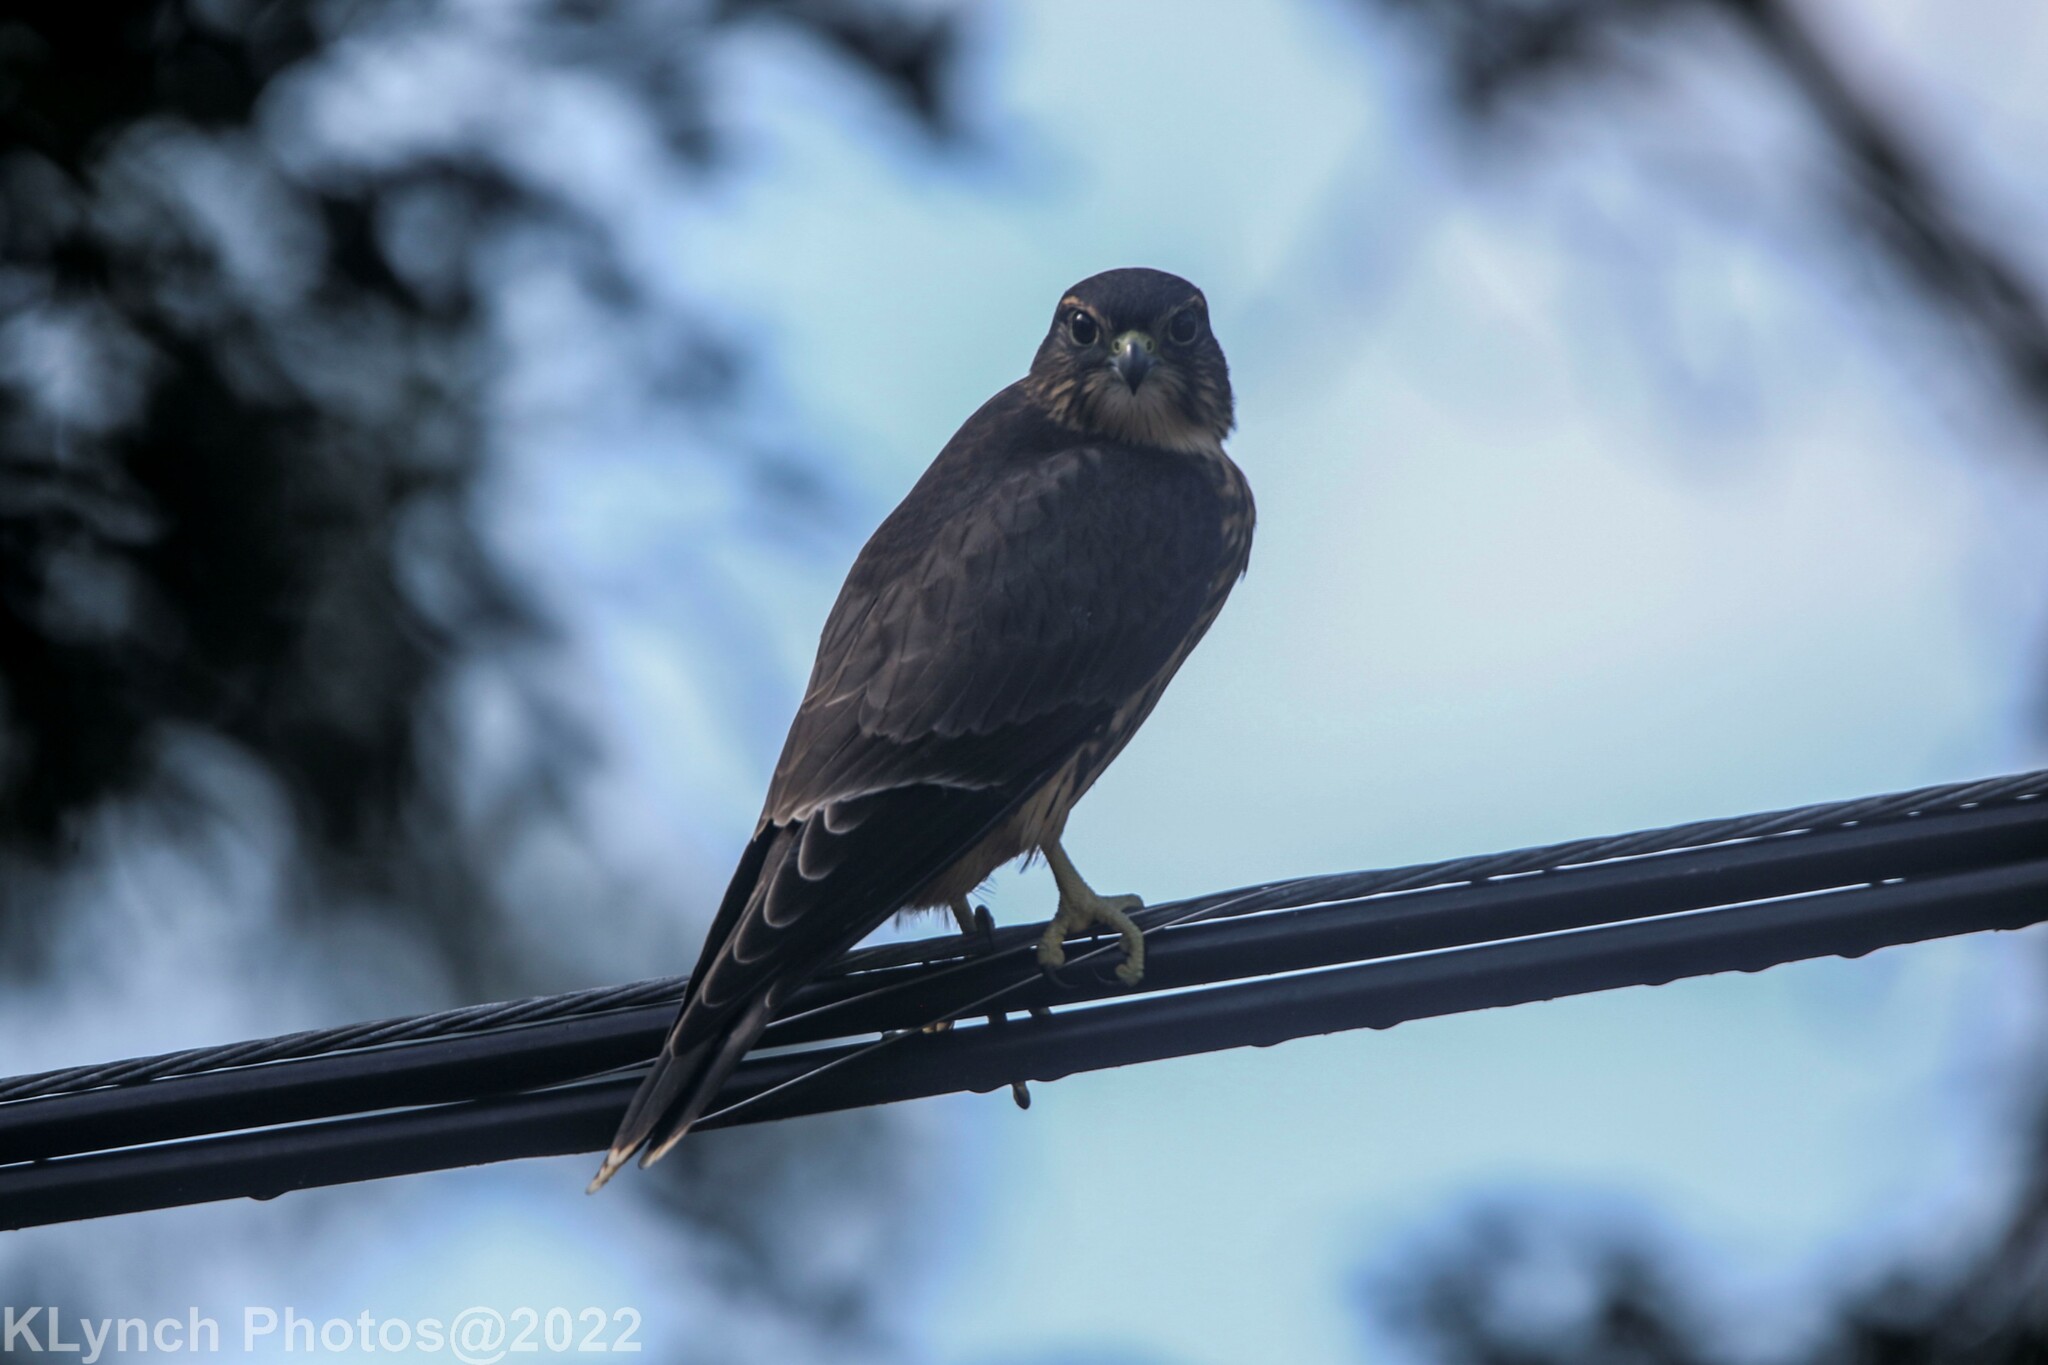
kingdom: Animalia
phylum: Chordata
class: Aves
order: Falconiformes
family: Falconidae
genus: Falco
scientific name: Falco columbarius
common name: Merlin
